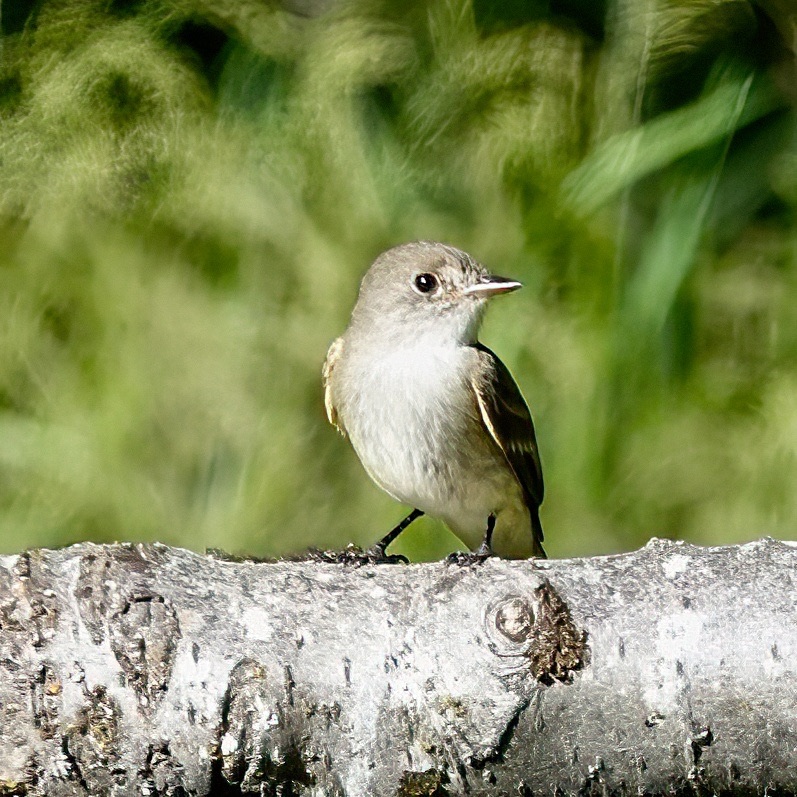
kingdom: Animalia
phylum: Chordata
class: Aves
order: Passeriformes
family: Tyrannidae
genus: Empidonax
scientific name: Empidonax traillii
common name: Willow flycatcher
